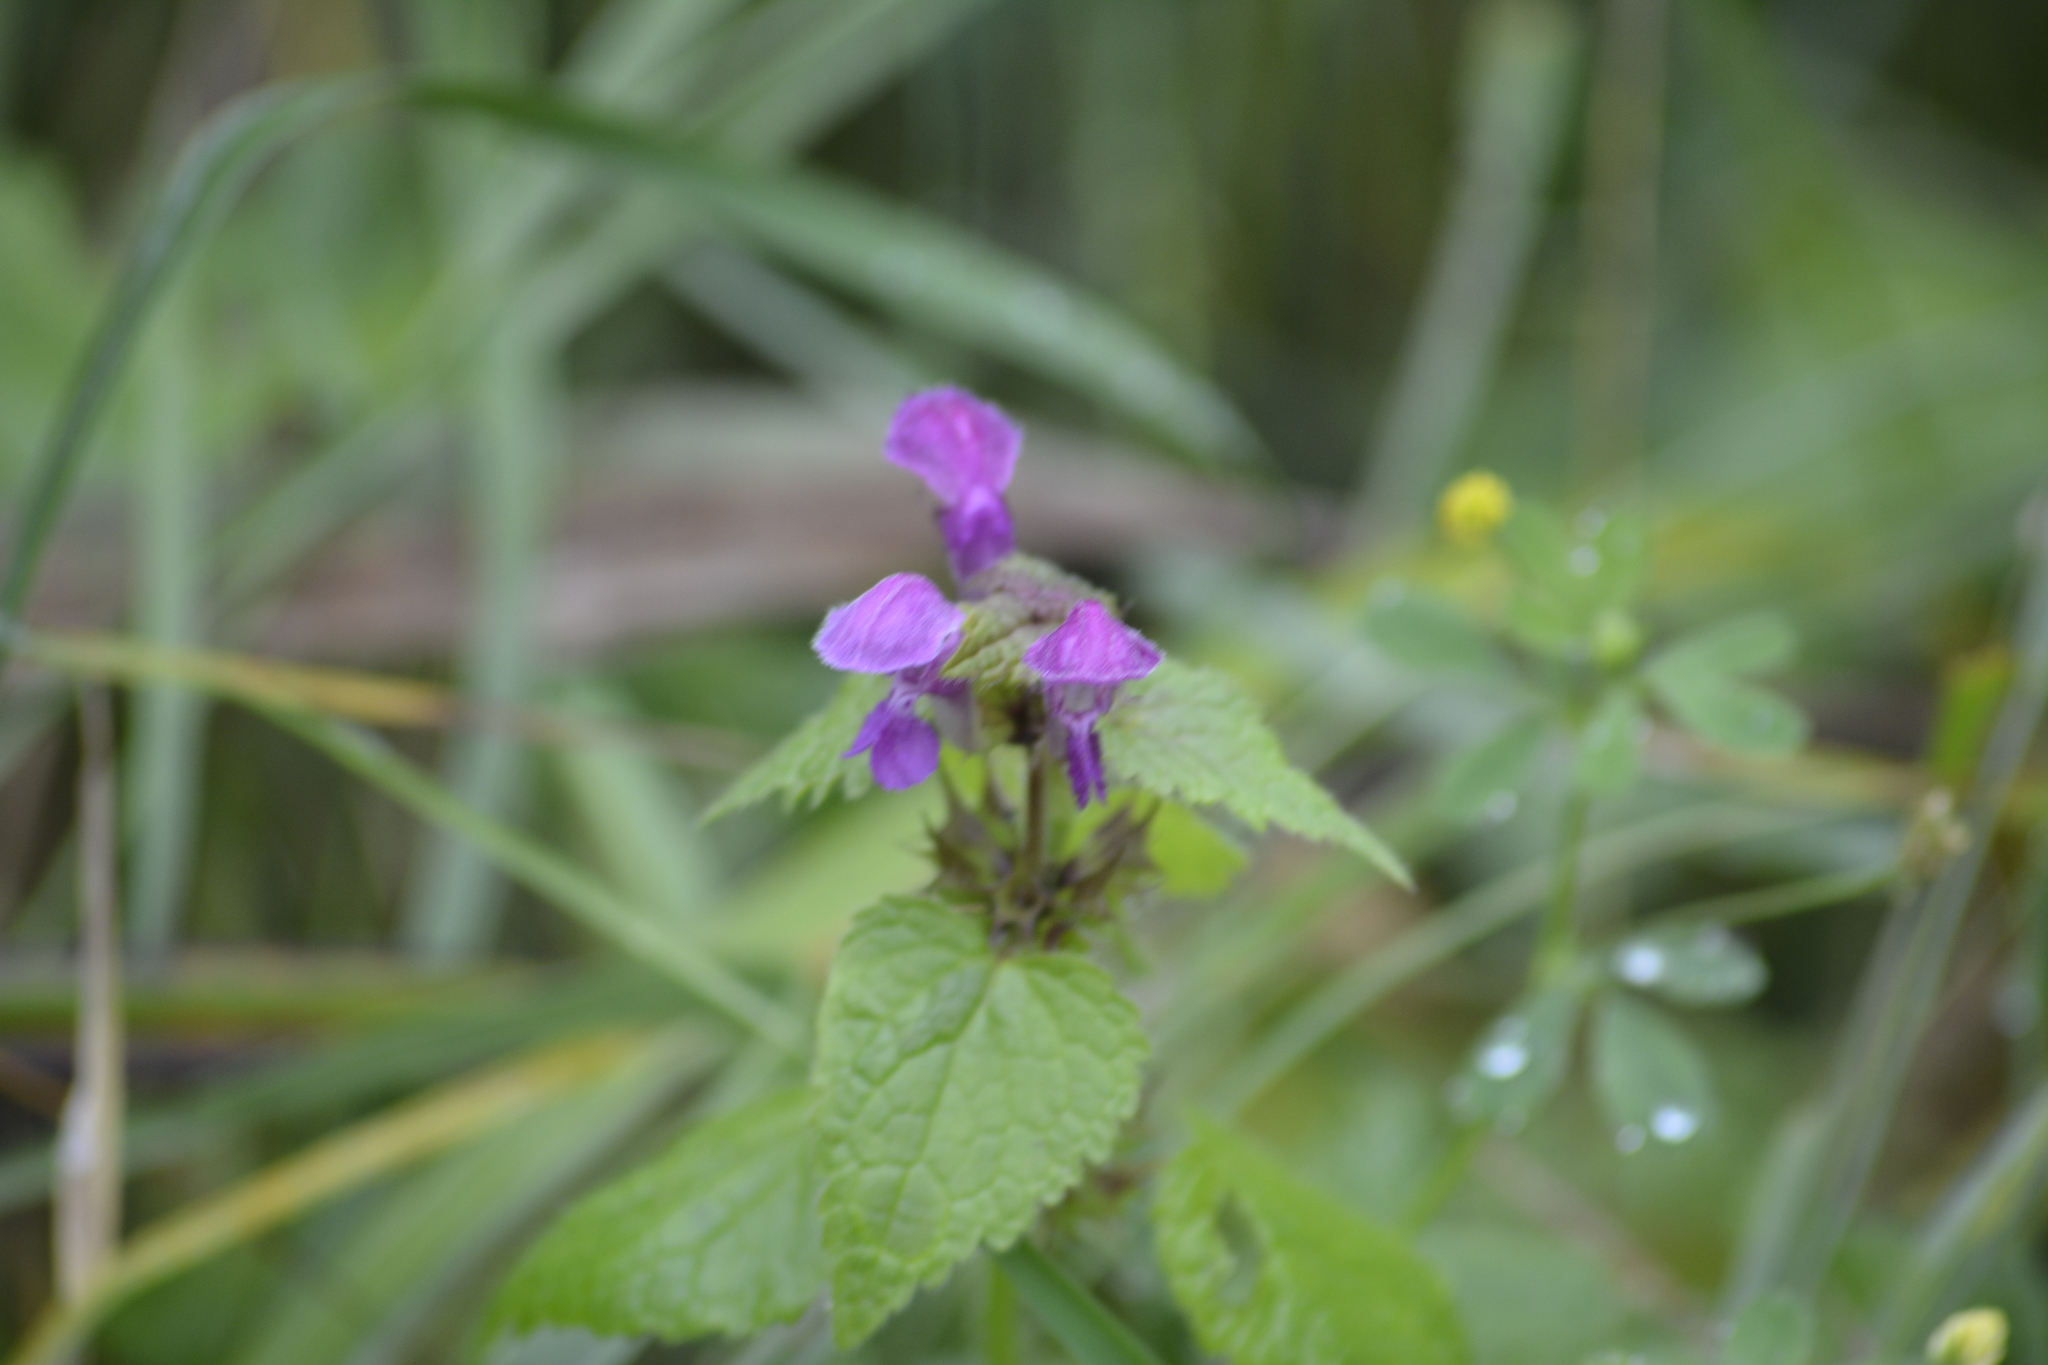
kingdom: Plantae
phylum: Tracheophyta
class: Magnoliopsida
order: Lamiales
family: Lamiaceae
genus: Lamium
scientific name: Lamium maculatum
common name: Spotted dead-nettle
